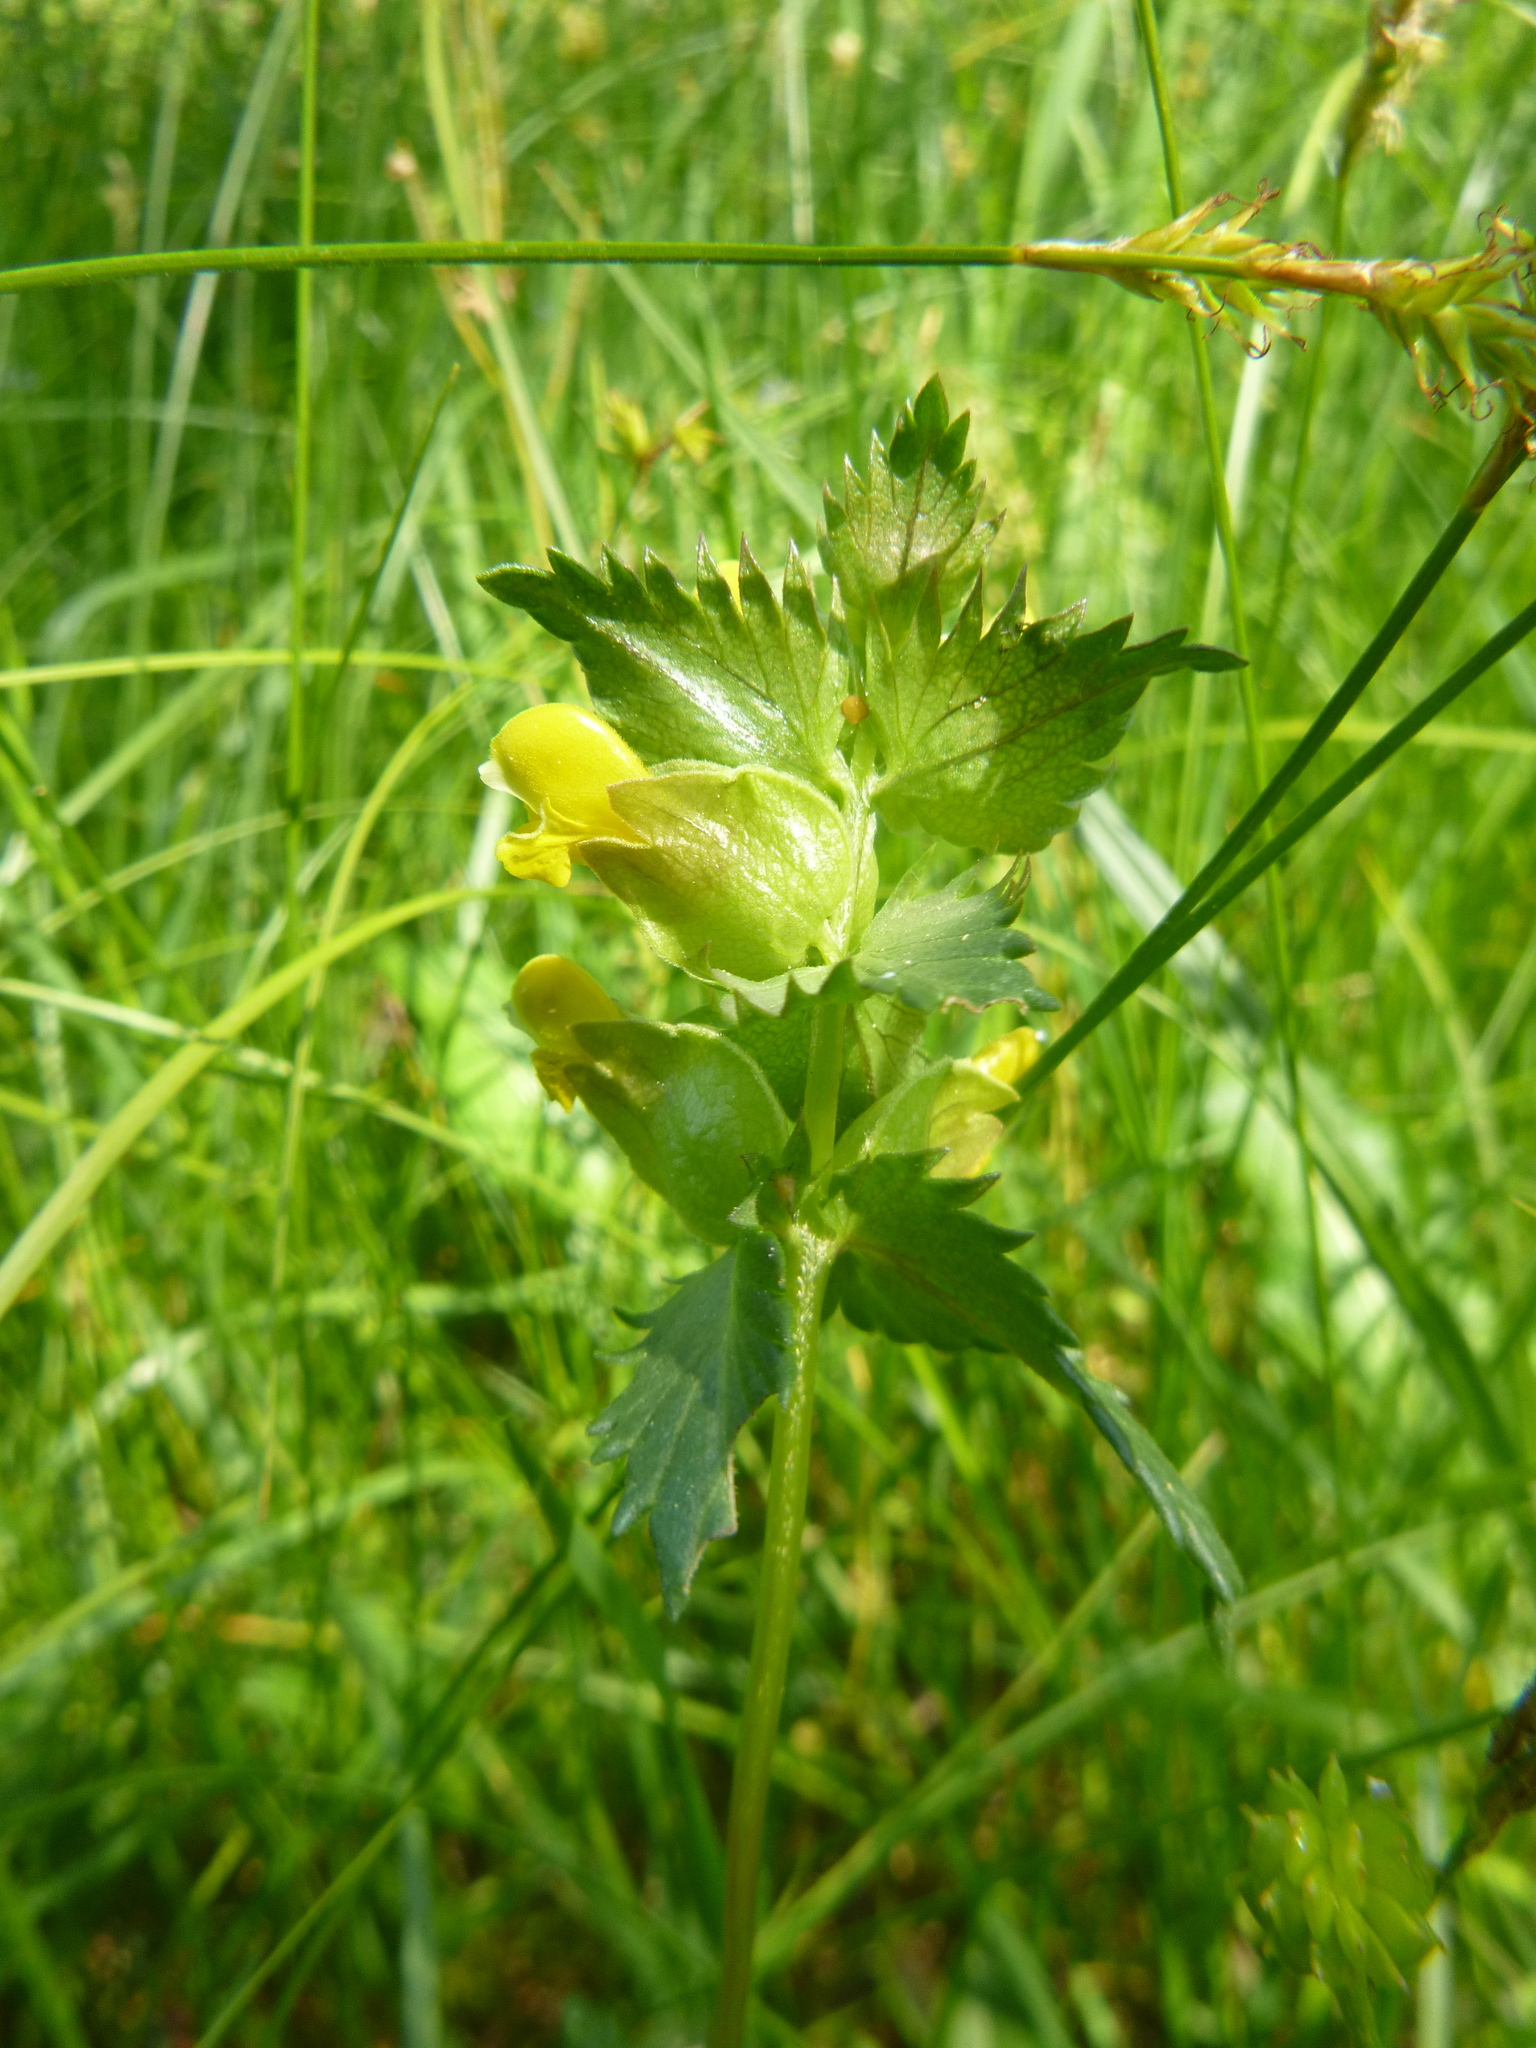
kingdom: Plantae
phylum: Tracheophyta
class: Magnoliopsida
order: Lamiales
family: Orobanchaceae
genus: Rhinanthus
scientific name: Rhinanthus minor
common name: Yellow-rattle
